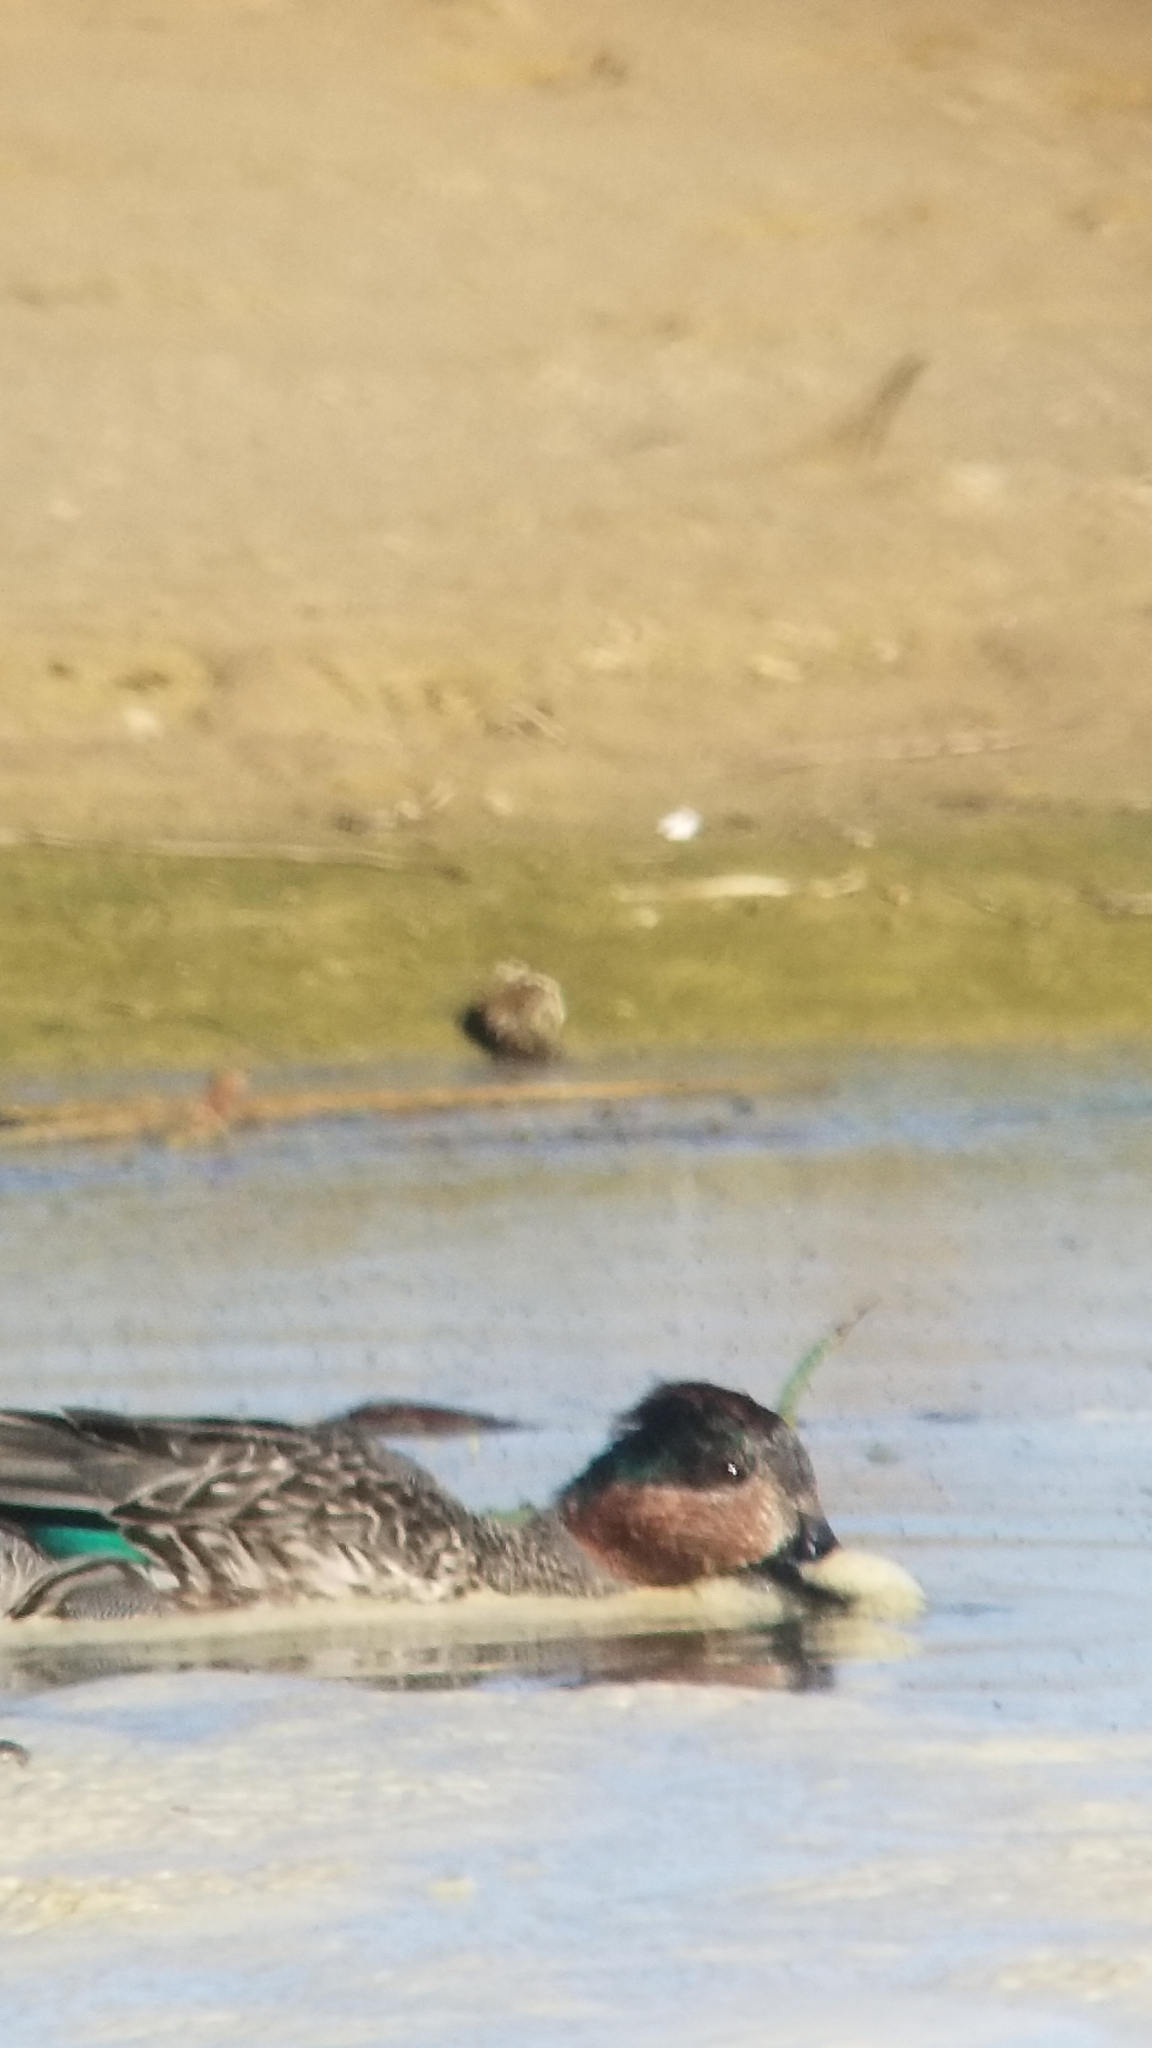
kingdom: Animalia
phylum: Chordata
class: Aves
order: Anseriformes
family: Anatidae
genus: Anas
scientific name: Anas crecca
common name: Eurasian teal
